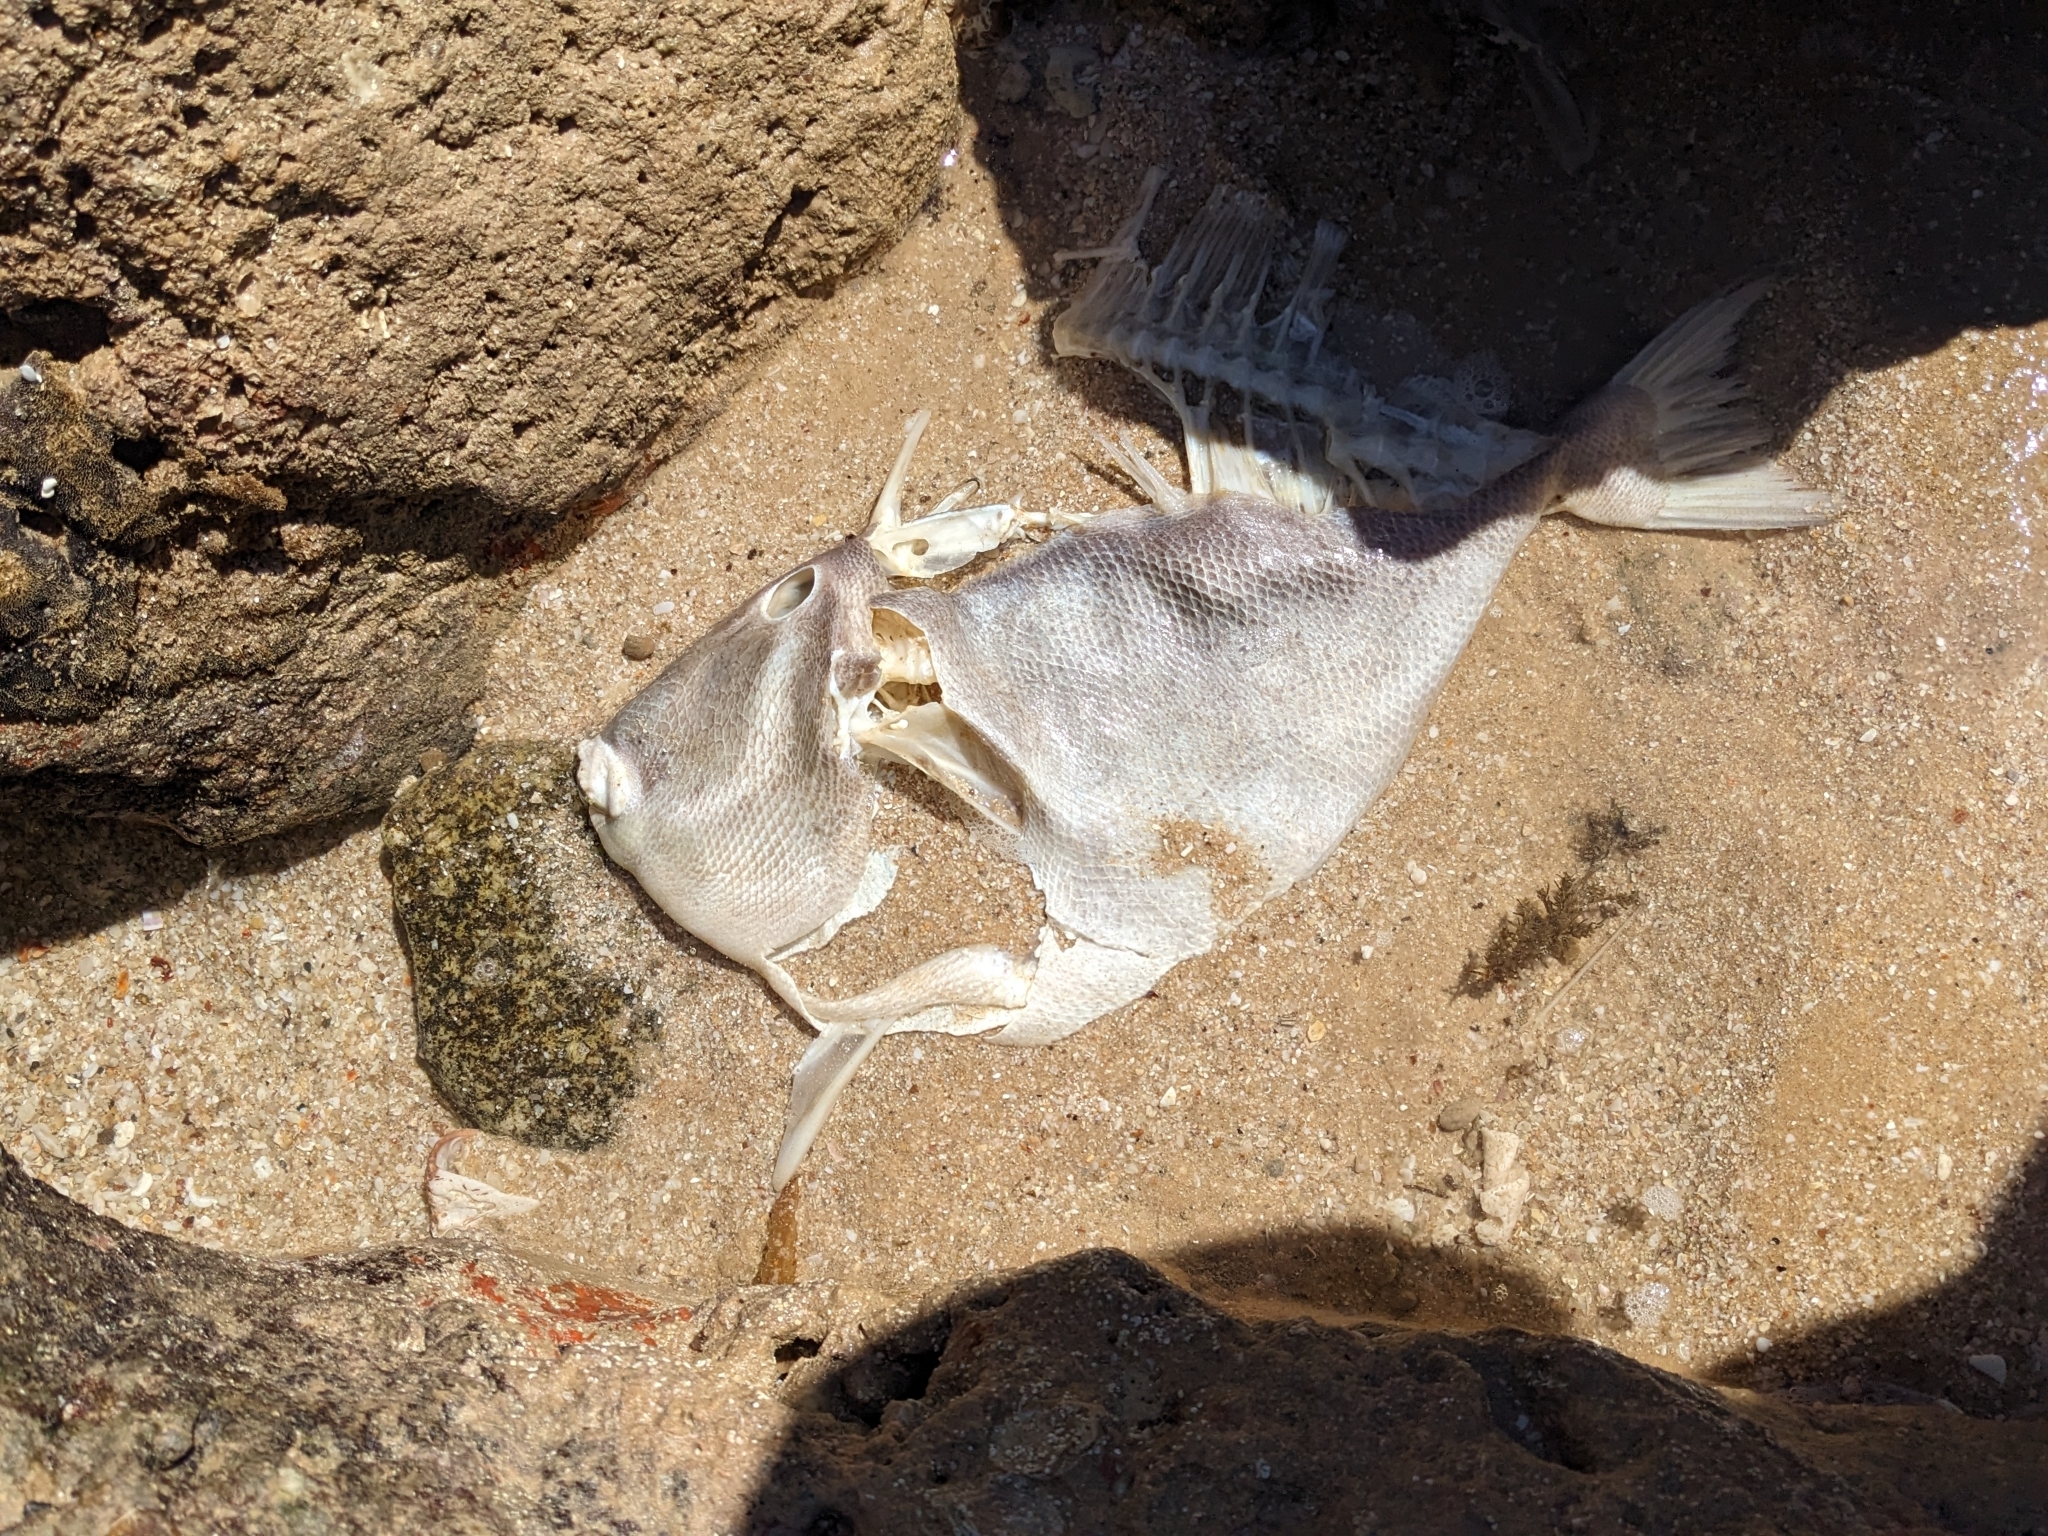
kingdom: Animalia
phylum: Chordata
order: Tetraodontiformes
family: Balistidae
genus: Balistes
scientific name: Balistes polylepis
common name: Finescale triggerfish
